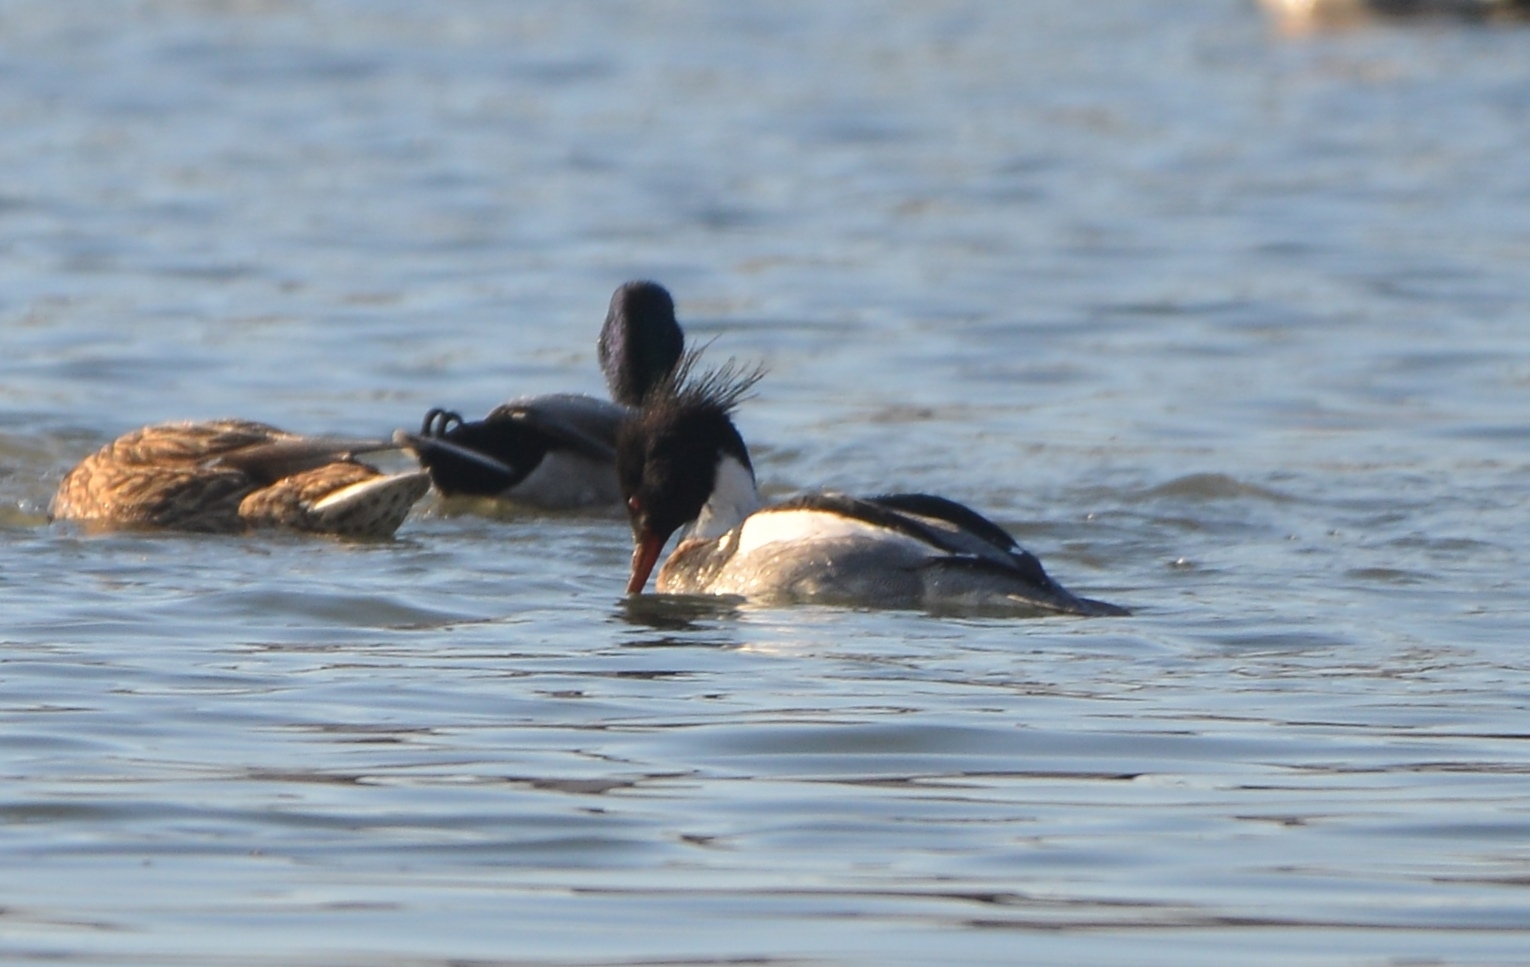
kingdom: Animalia
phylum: Chordata
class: Aves
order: Anseriformes
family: Anatidae
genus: Mergus
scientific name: Mergus serrator
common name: Red-breasted merganser
